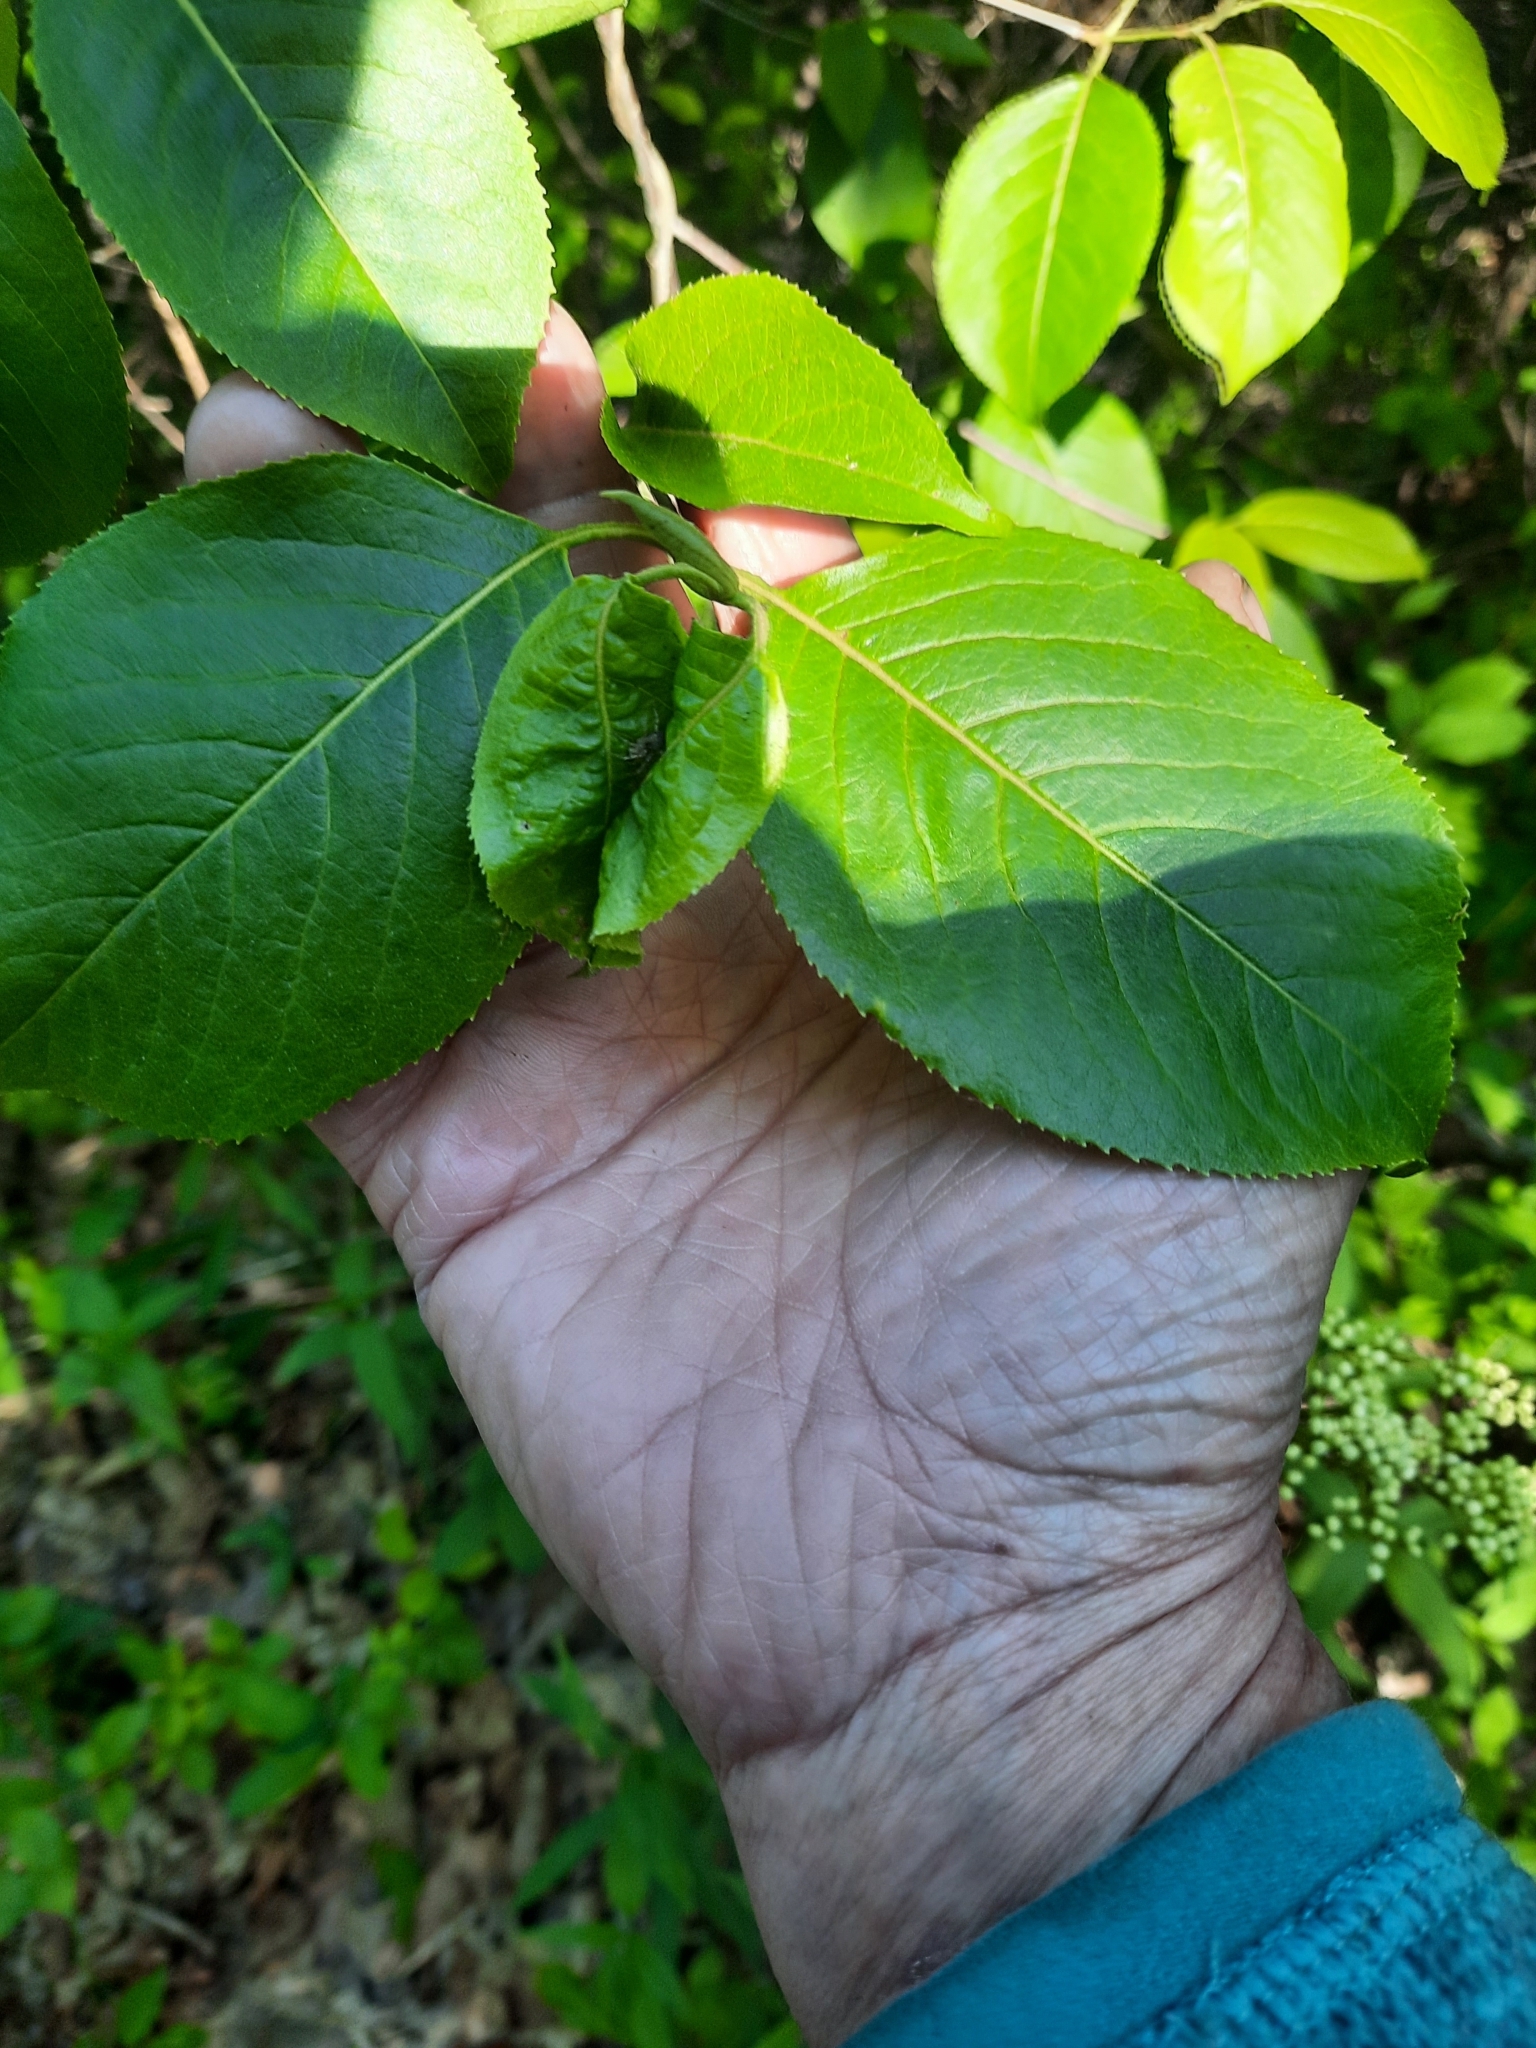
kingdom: Plantae
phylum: Tracheophyta
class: Magnoliopsida
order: Dipsacales
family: Viburnaceae
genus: Viburnum
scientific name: Viburnum lentago
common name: Black haw
